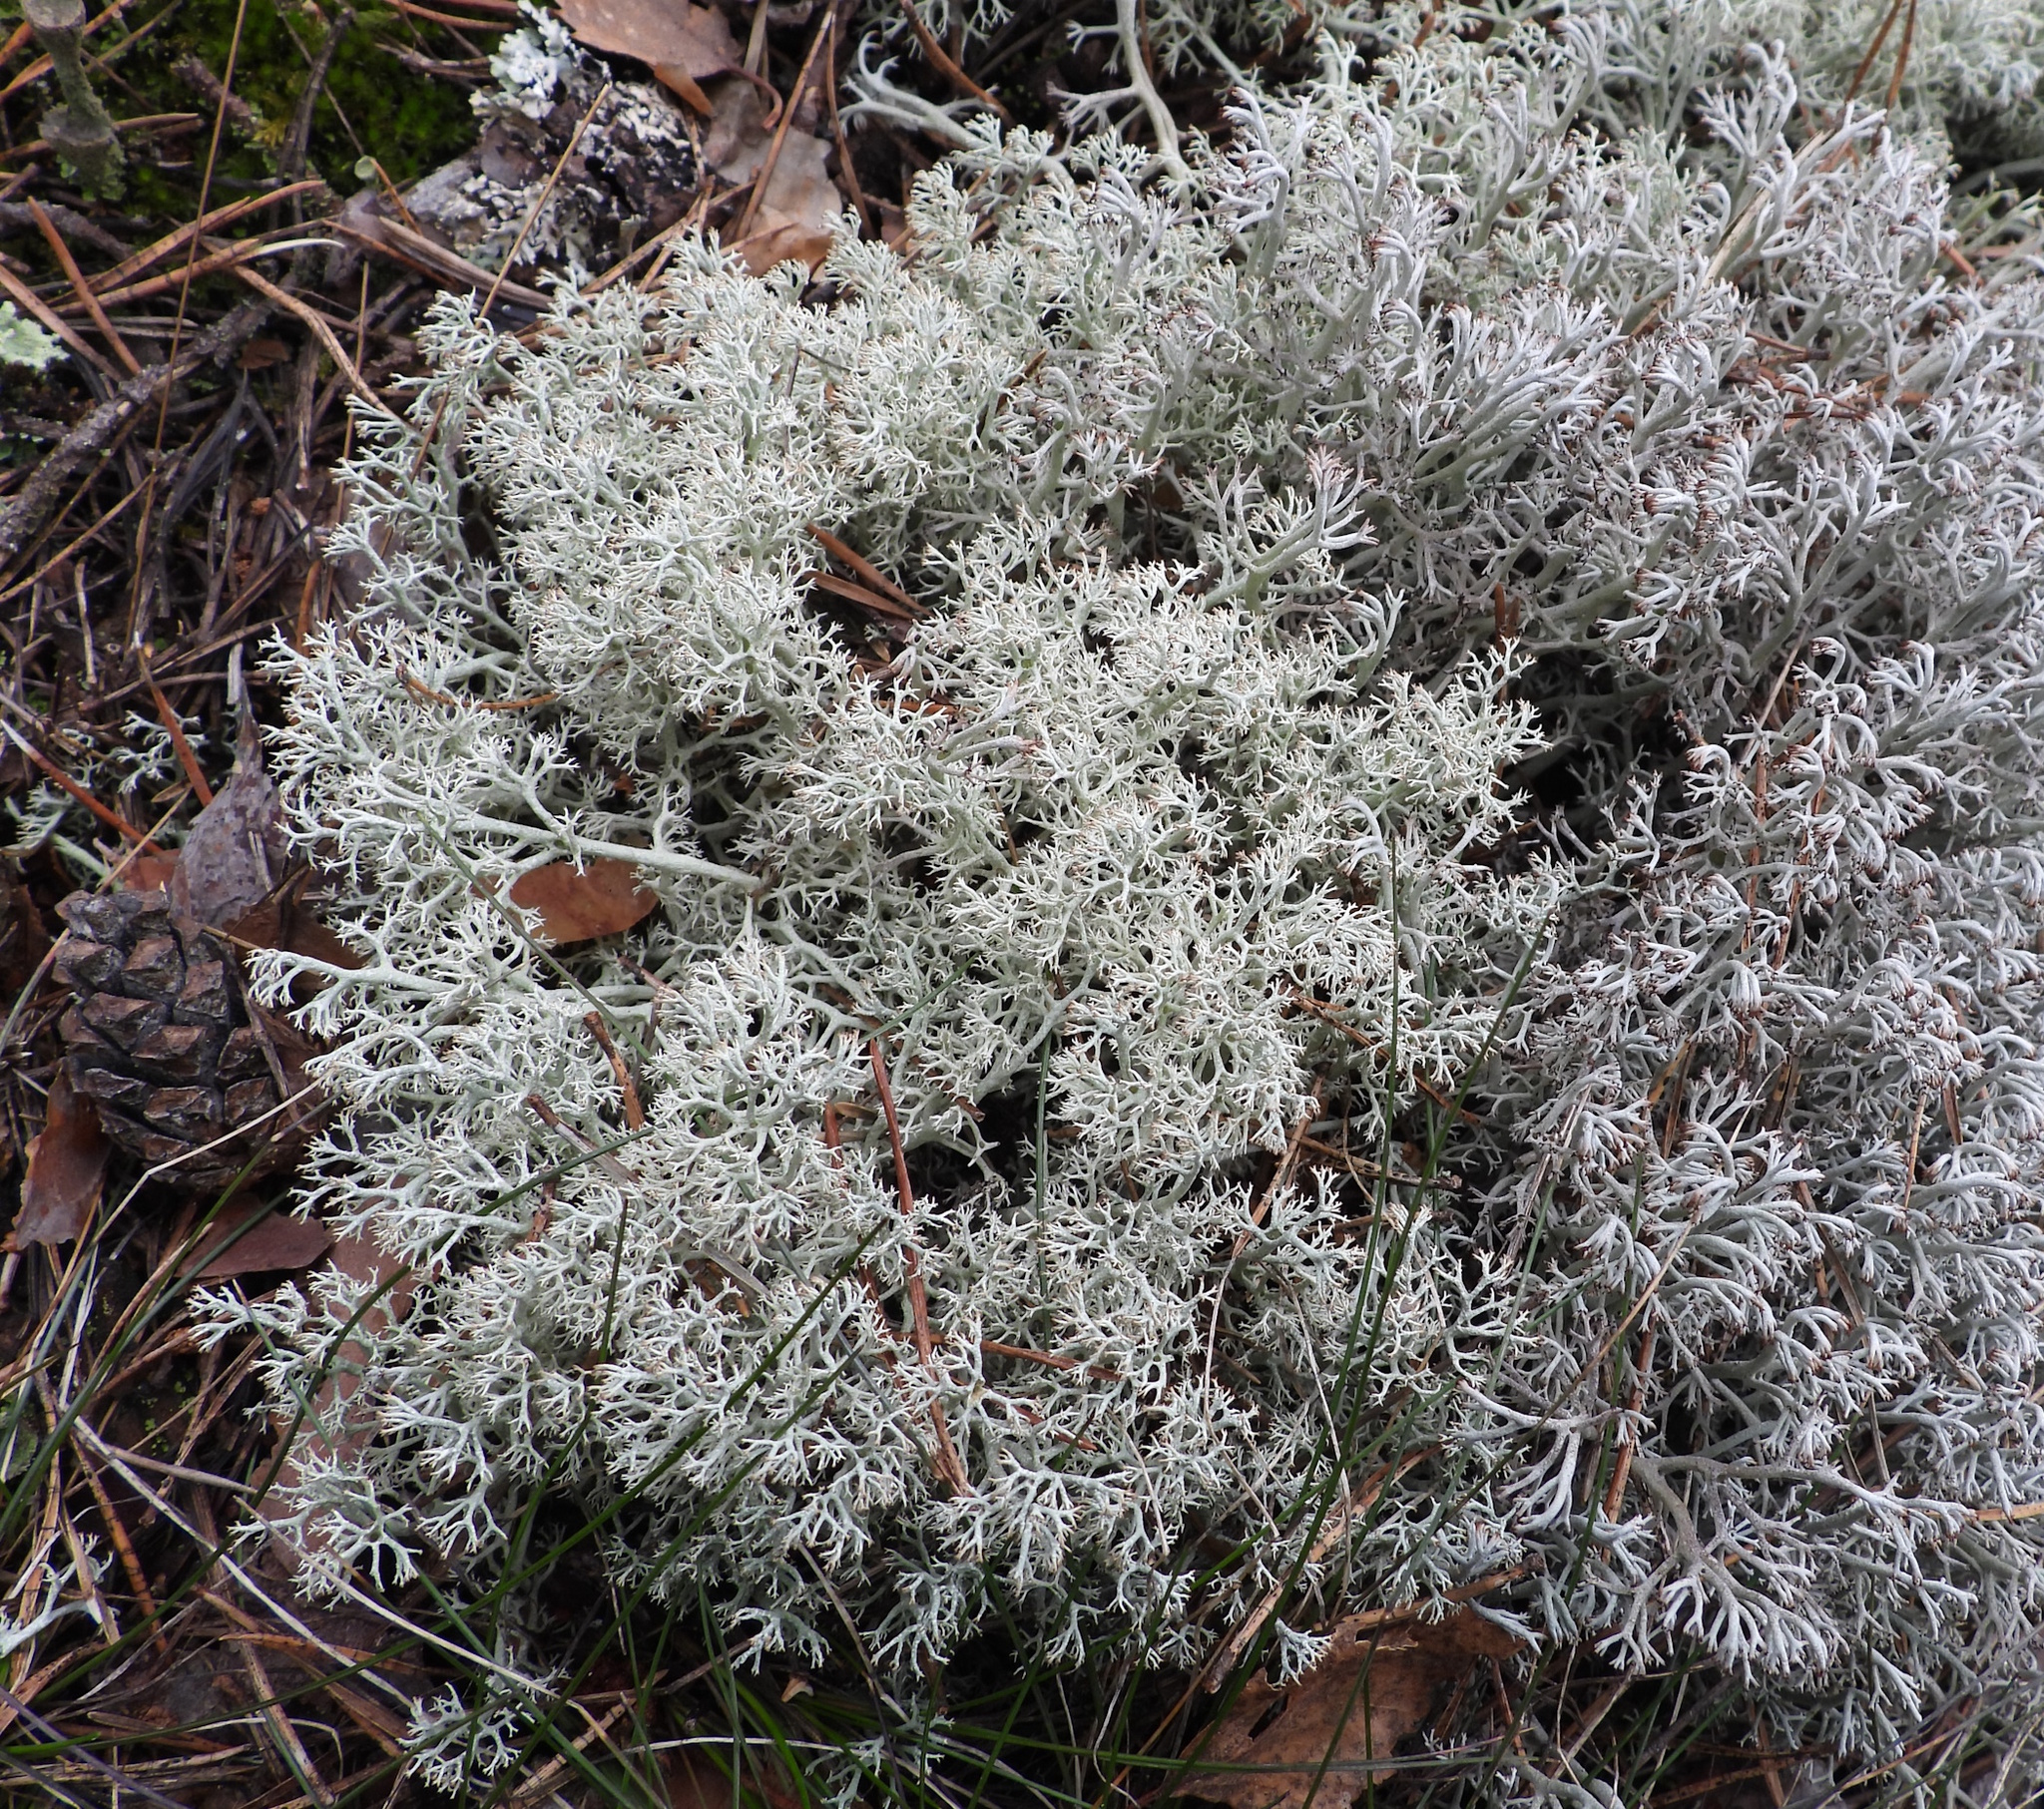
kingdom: Fungi
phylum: Ascomycota
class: Lecanoromycetes
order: Lecanorales
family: Cladoniaceae
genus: Cladonia
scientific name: Cladonia arbuscula
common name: Reindeer lichen
